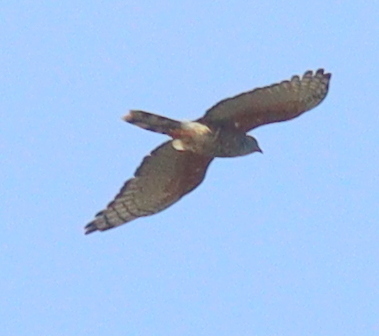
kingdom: Animalia
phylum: Chordata
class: Aves
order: Accipitriformes
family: Accipitridae
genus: Aviceda
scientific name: Aviceda cuculoides
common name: African cuckoo-hawk
